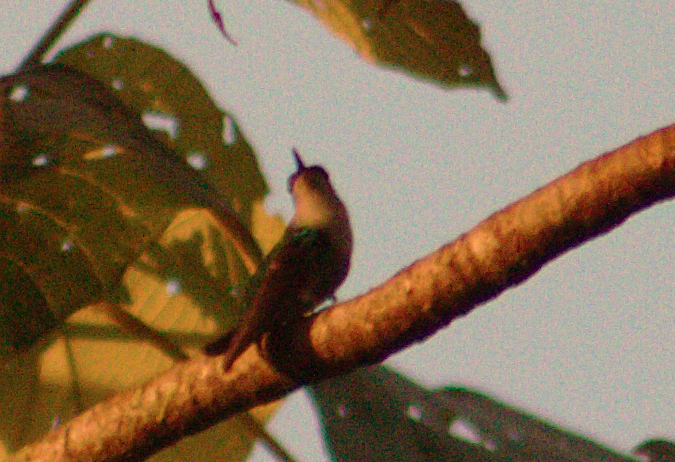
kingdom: Animalia
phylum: Chordata
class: Aves
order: Apodiformes
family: Trochilidae
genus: Thalurania
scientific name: Thalurania colombica
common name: Crowned woodnymph
